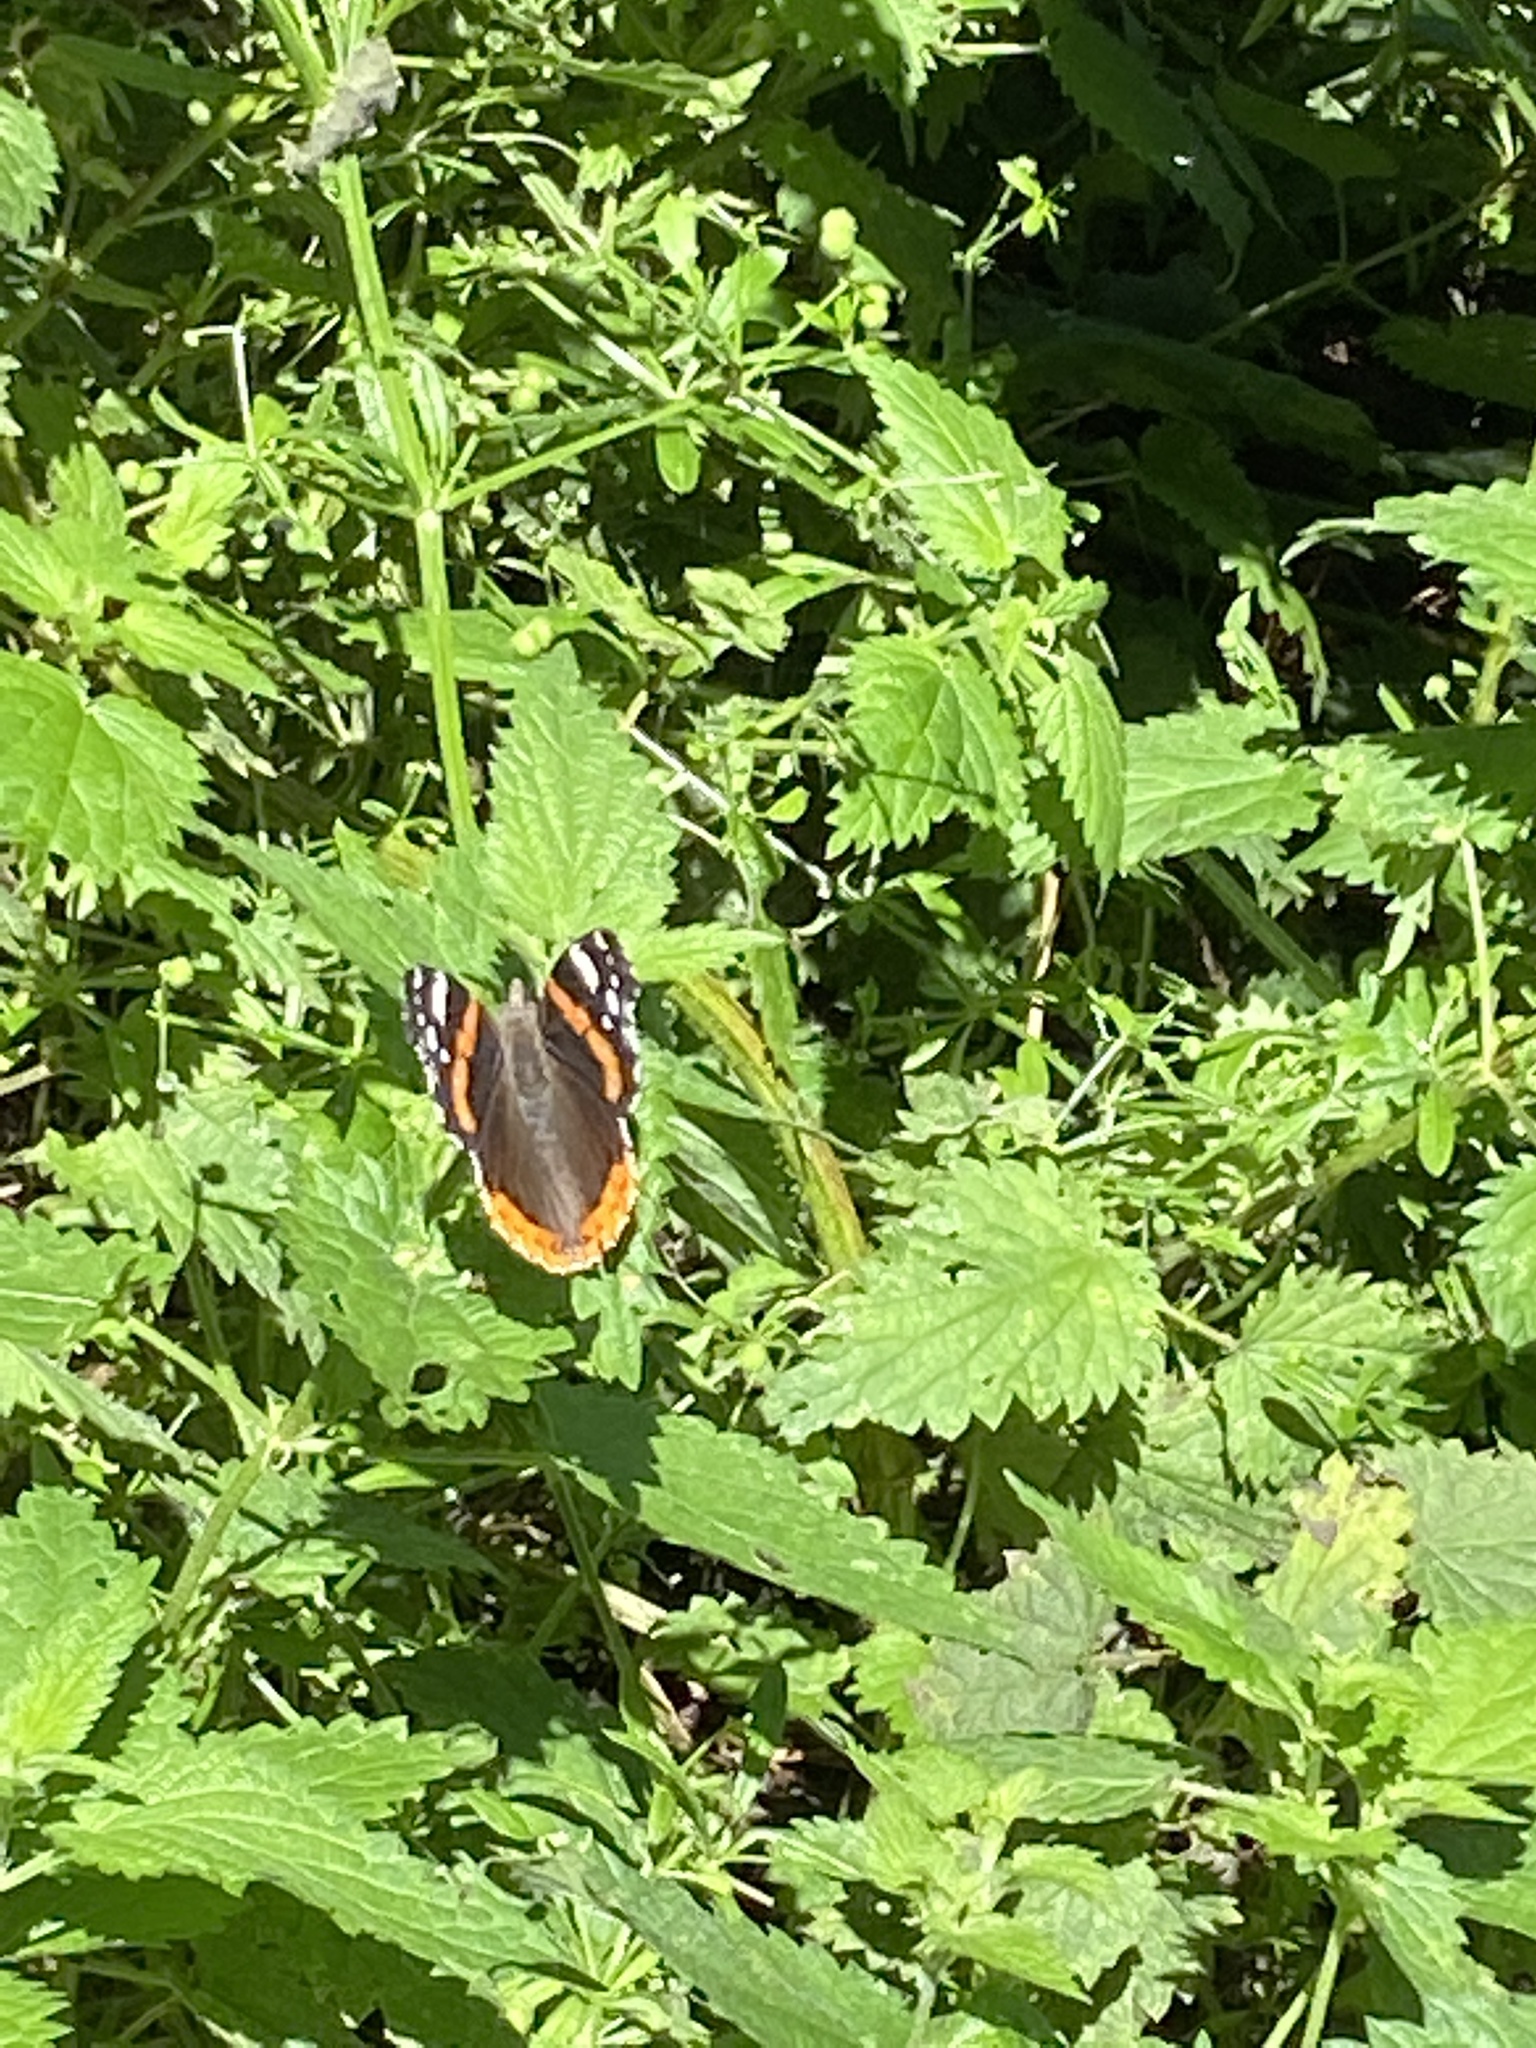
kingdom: Animalia
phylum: Arthropoda
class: Insecta
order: Lepidoptera
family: Nymphalidae
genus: Vanessa
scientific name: Vanessa atalanta
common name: Red admiral
